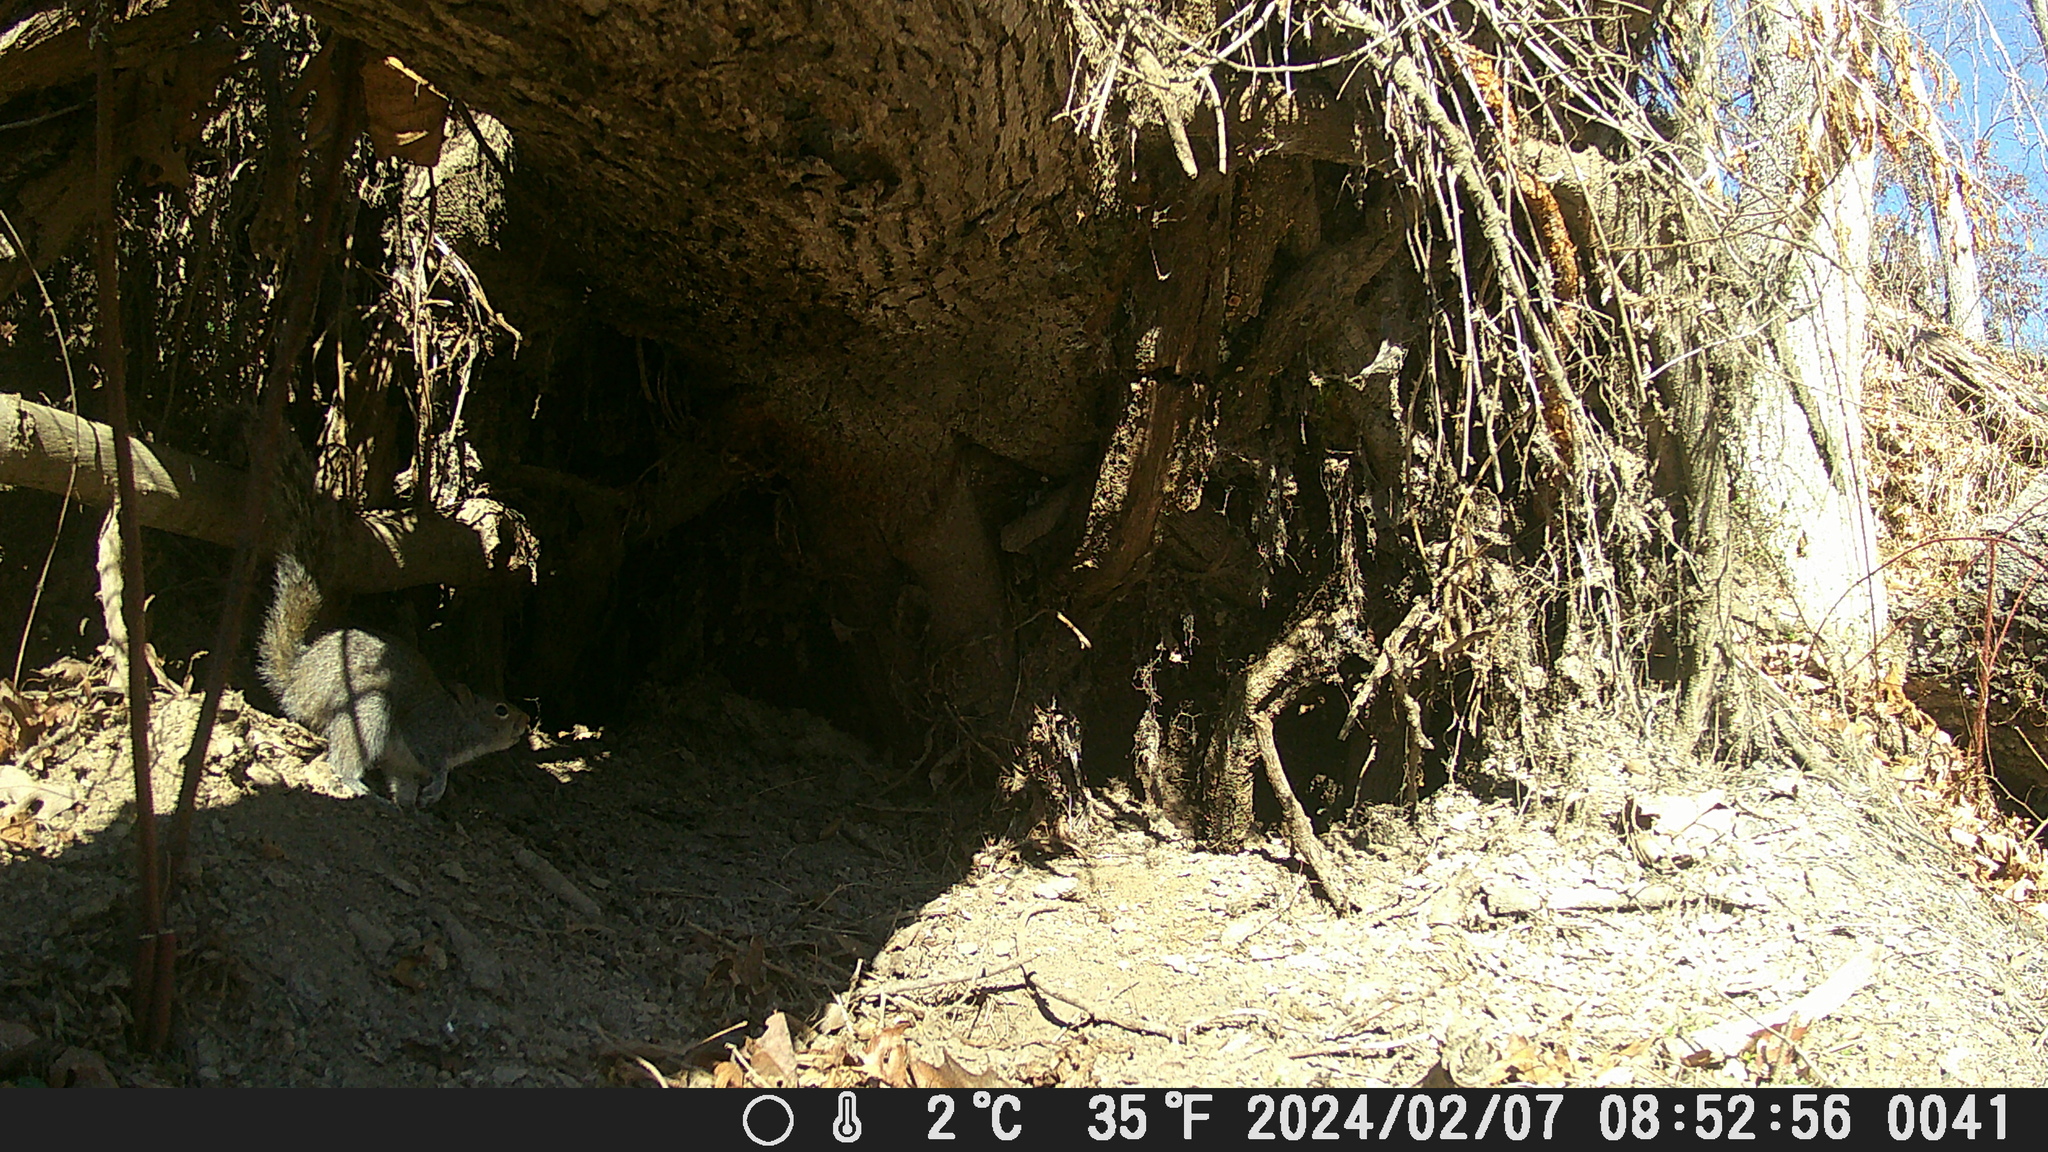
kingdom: Animalia
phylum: Chordata
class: Mammalia
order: Rodentia
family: Sciuridae
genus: Sciurus
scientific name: Sciurus carolinensis
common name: Eastern gray squirrel
